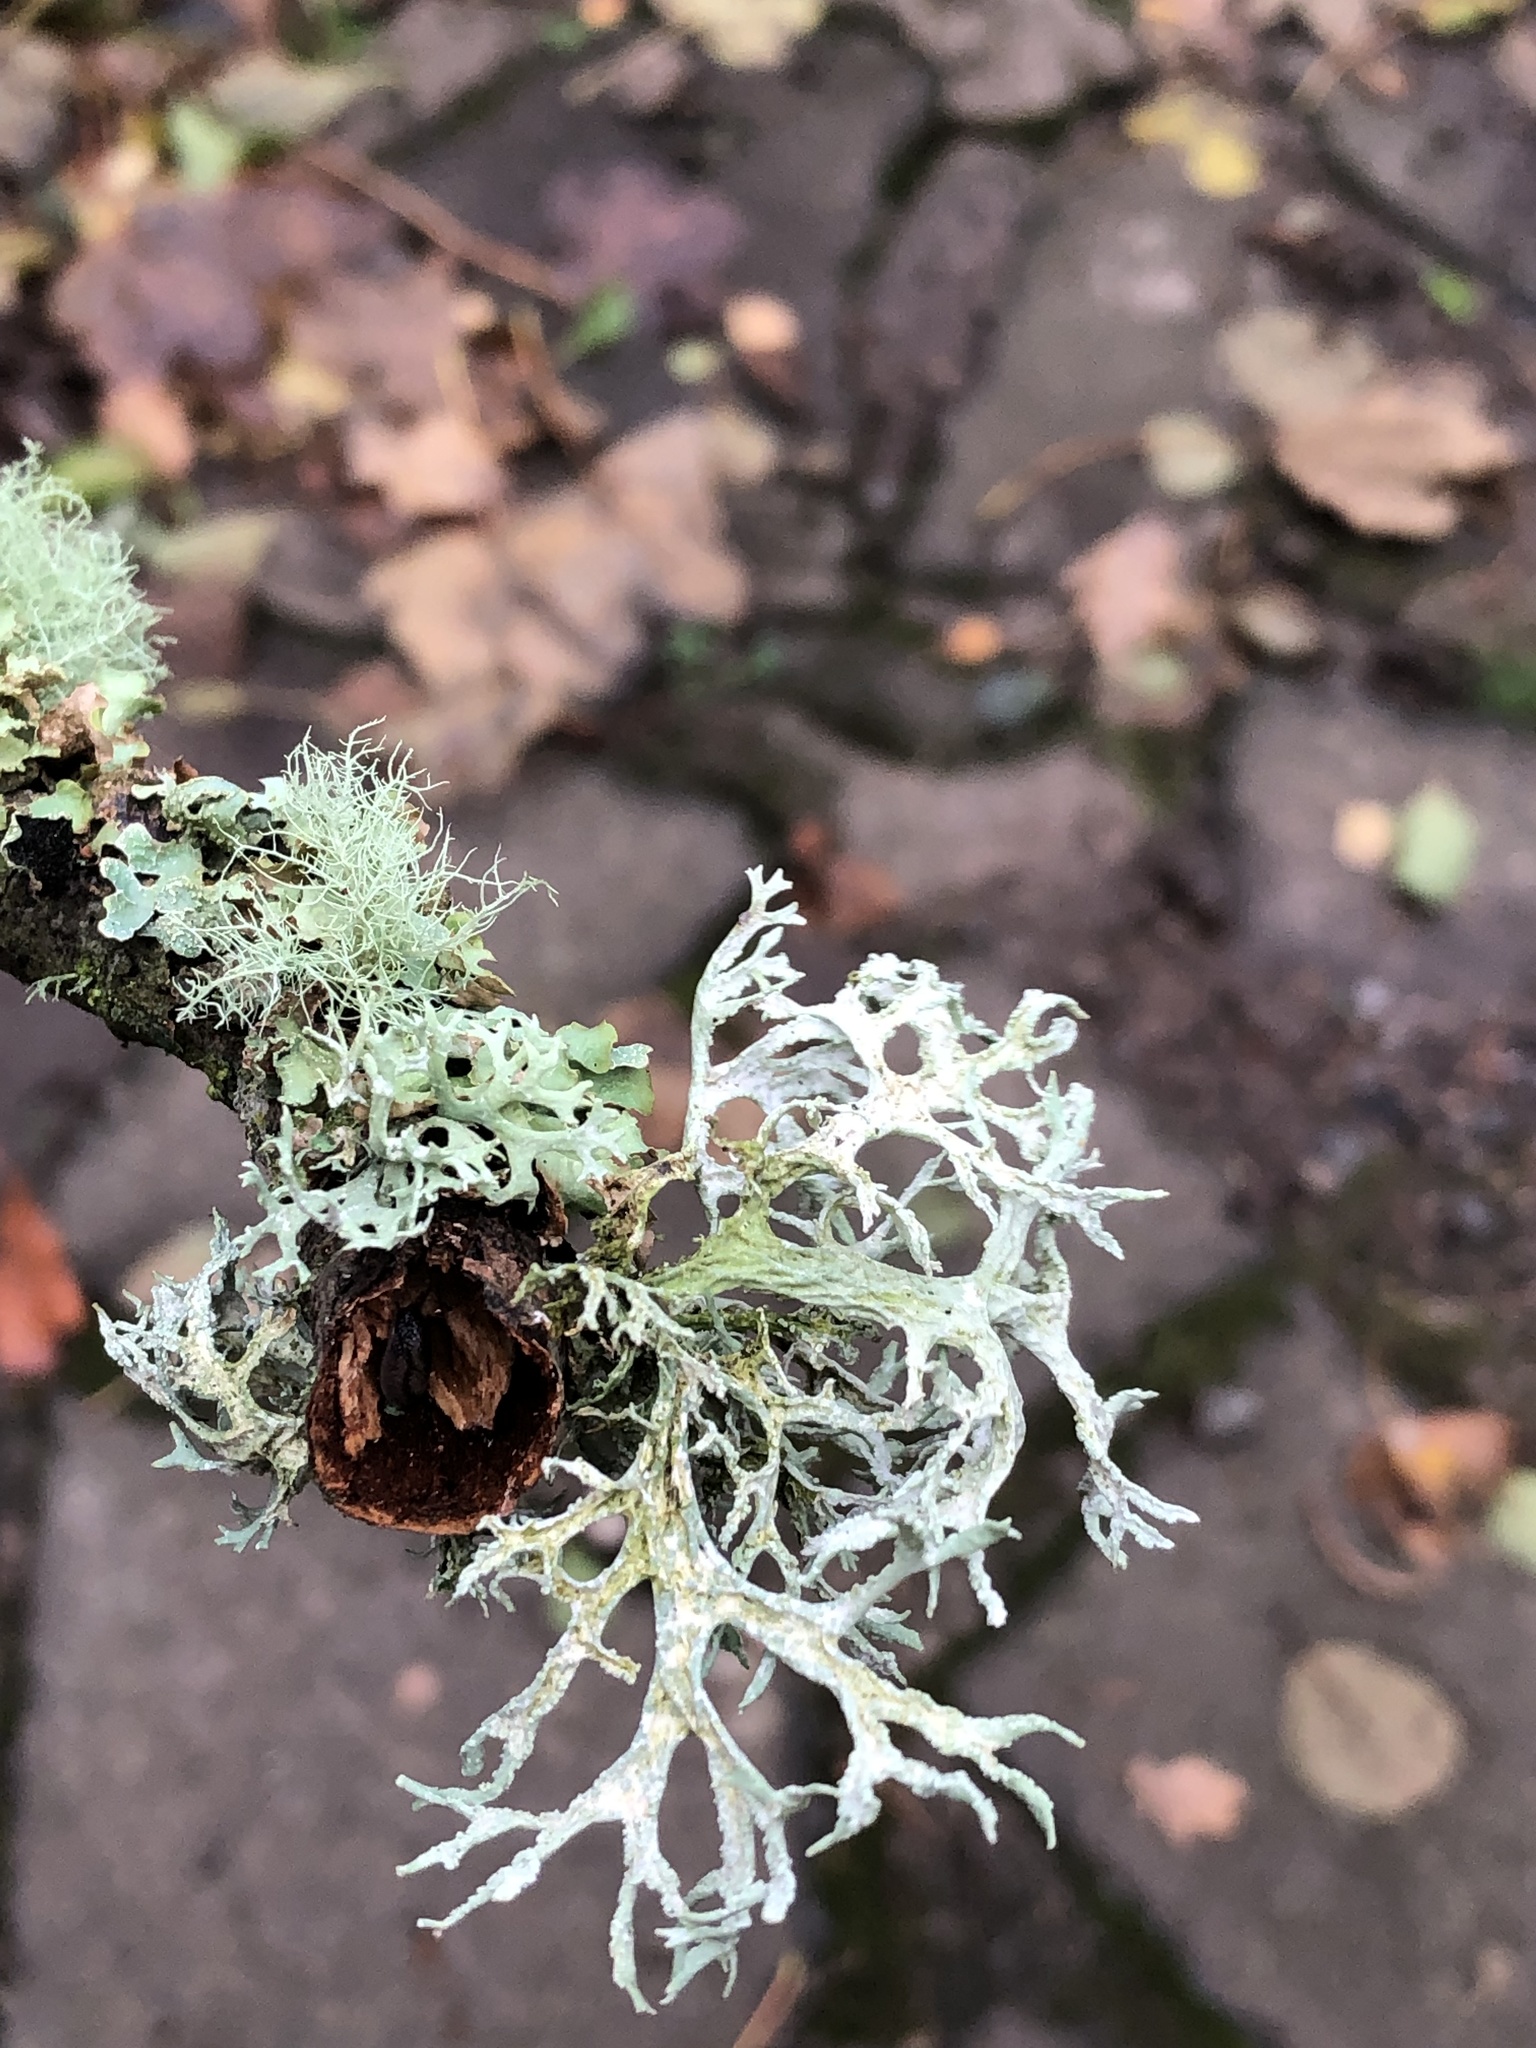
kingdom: Fungi
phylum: Ascomycota
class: Lecanoromycetes
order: Lecanorales
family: Parmeliaceae
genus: Evernia
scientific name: Evernia prunastri
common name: Oak moss
